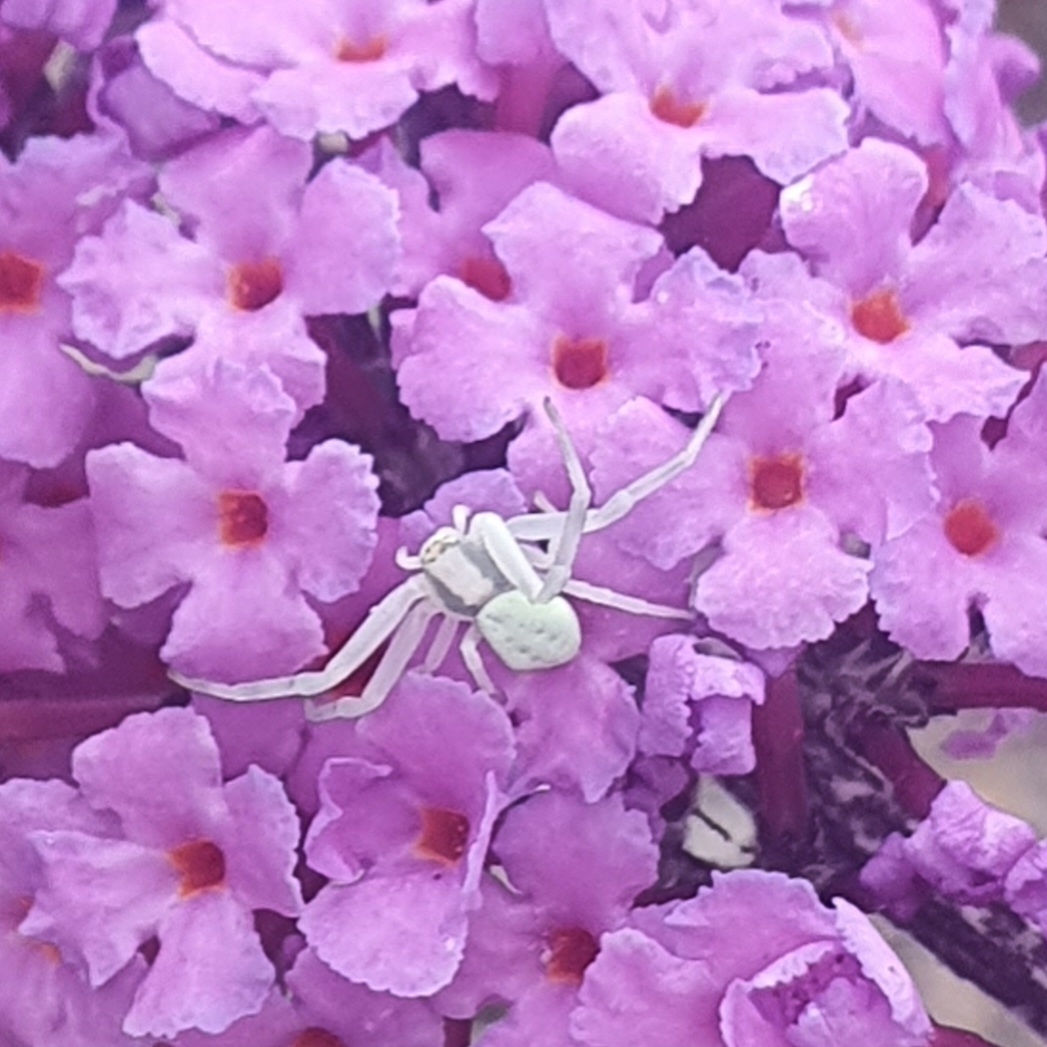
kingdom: Animalia
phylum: Arthropoda
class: Arachnida
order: Araneae
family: Thomisidae
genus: Misumena
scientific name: Misumena vatia
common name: Goldenrod crab spider
